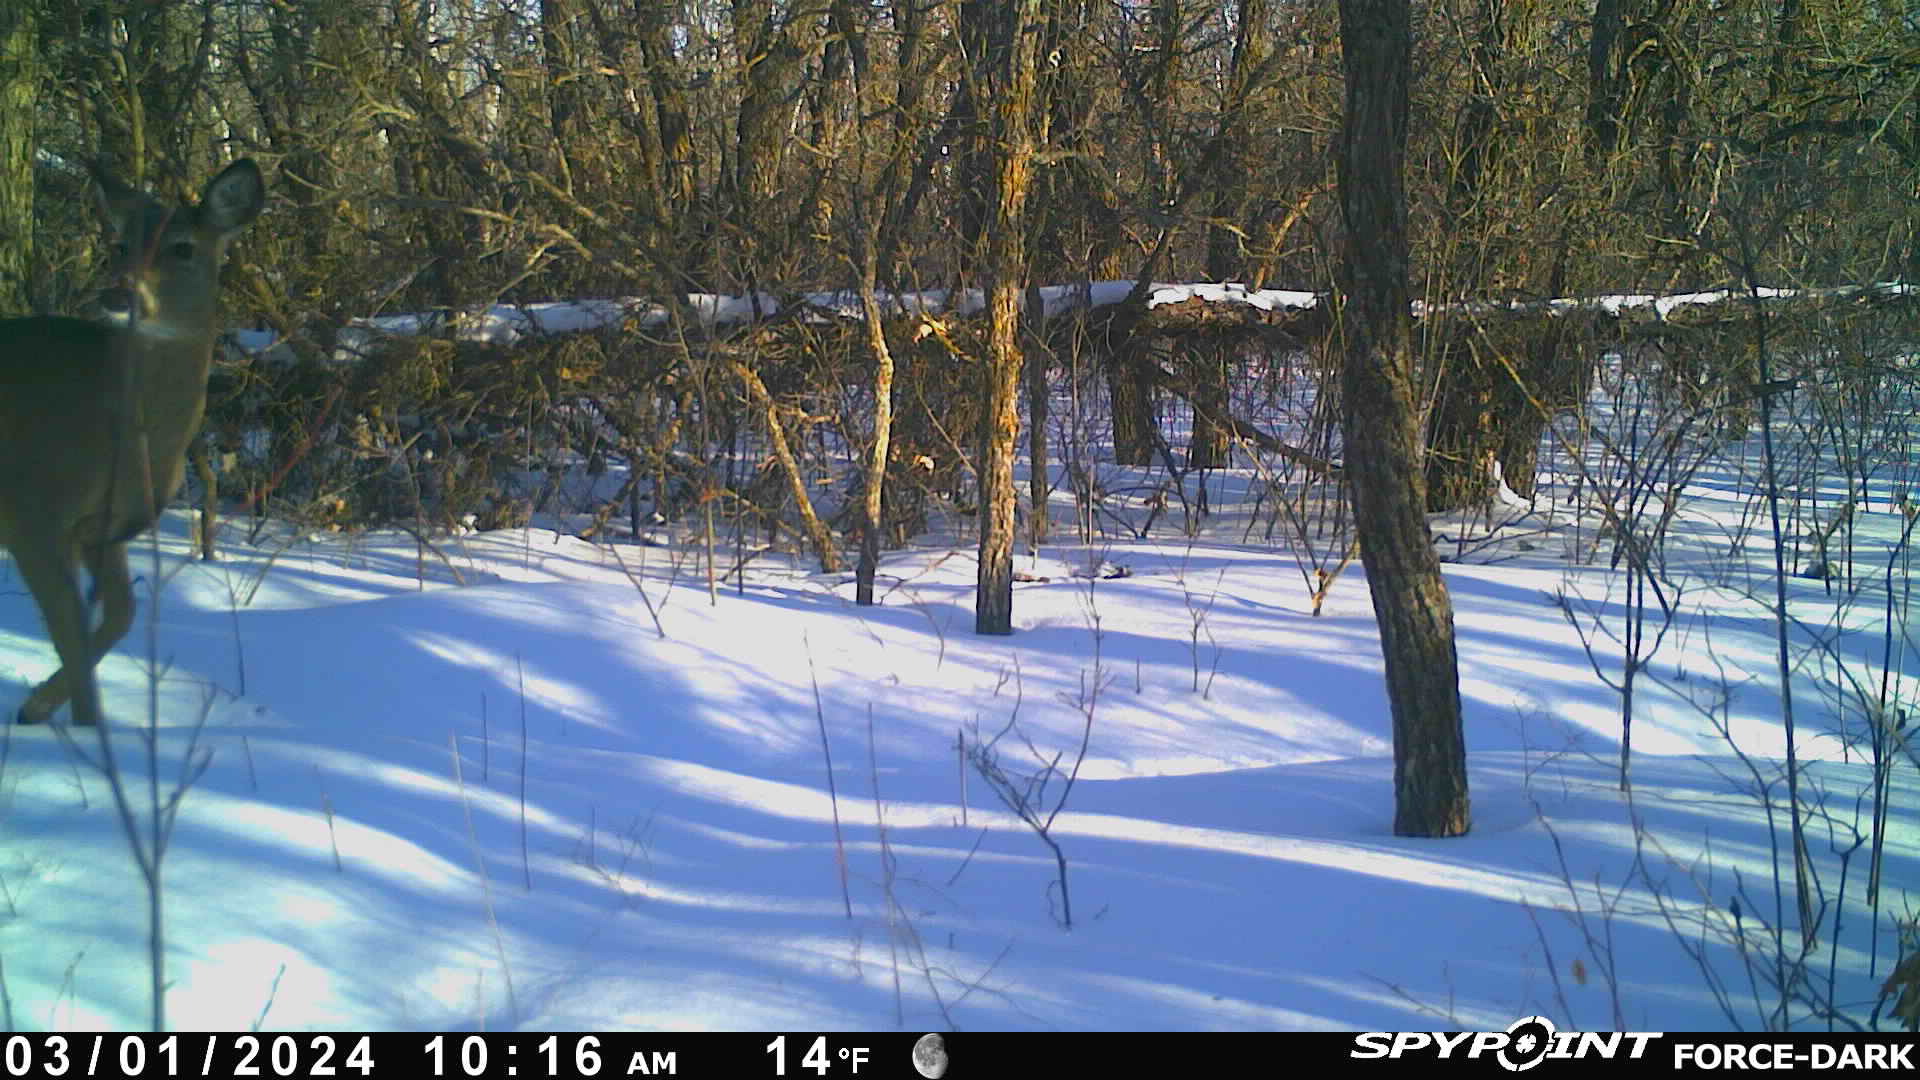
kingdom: Animalia
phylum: Chordata
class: Mammalia
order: Artiodactyla
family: Cervidae
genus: Odocoileus
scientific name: Odocoileus virginianus
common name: White-tailed deer
